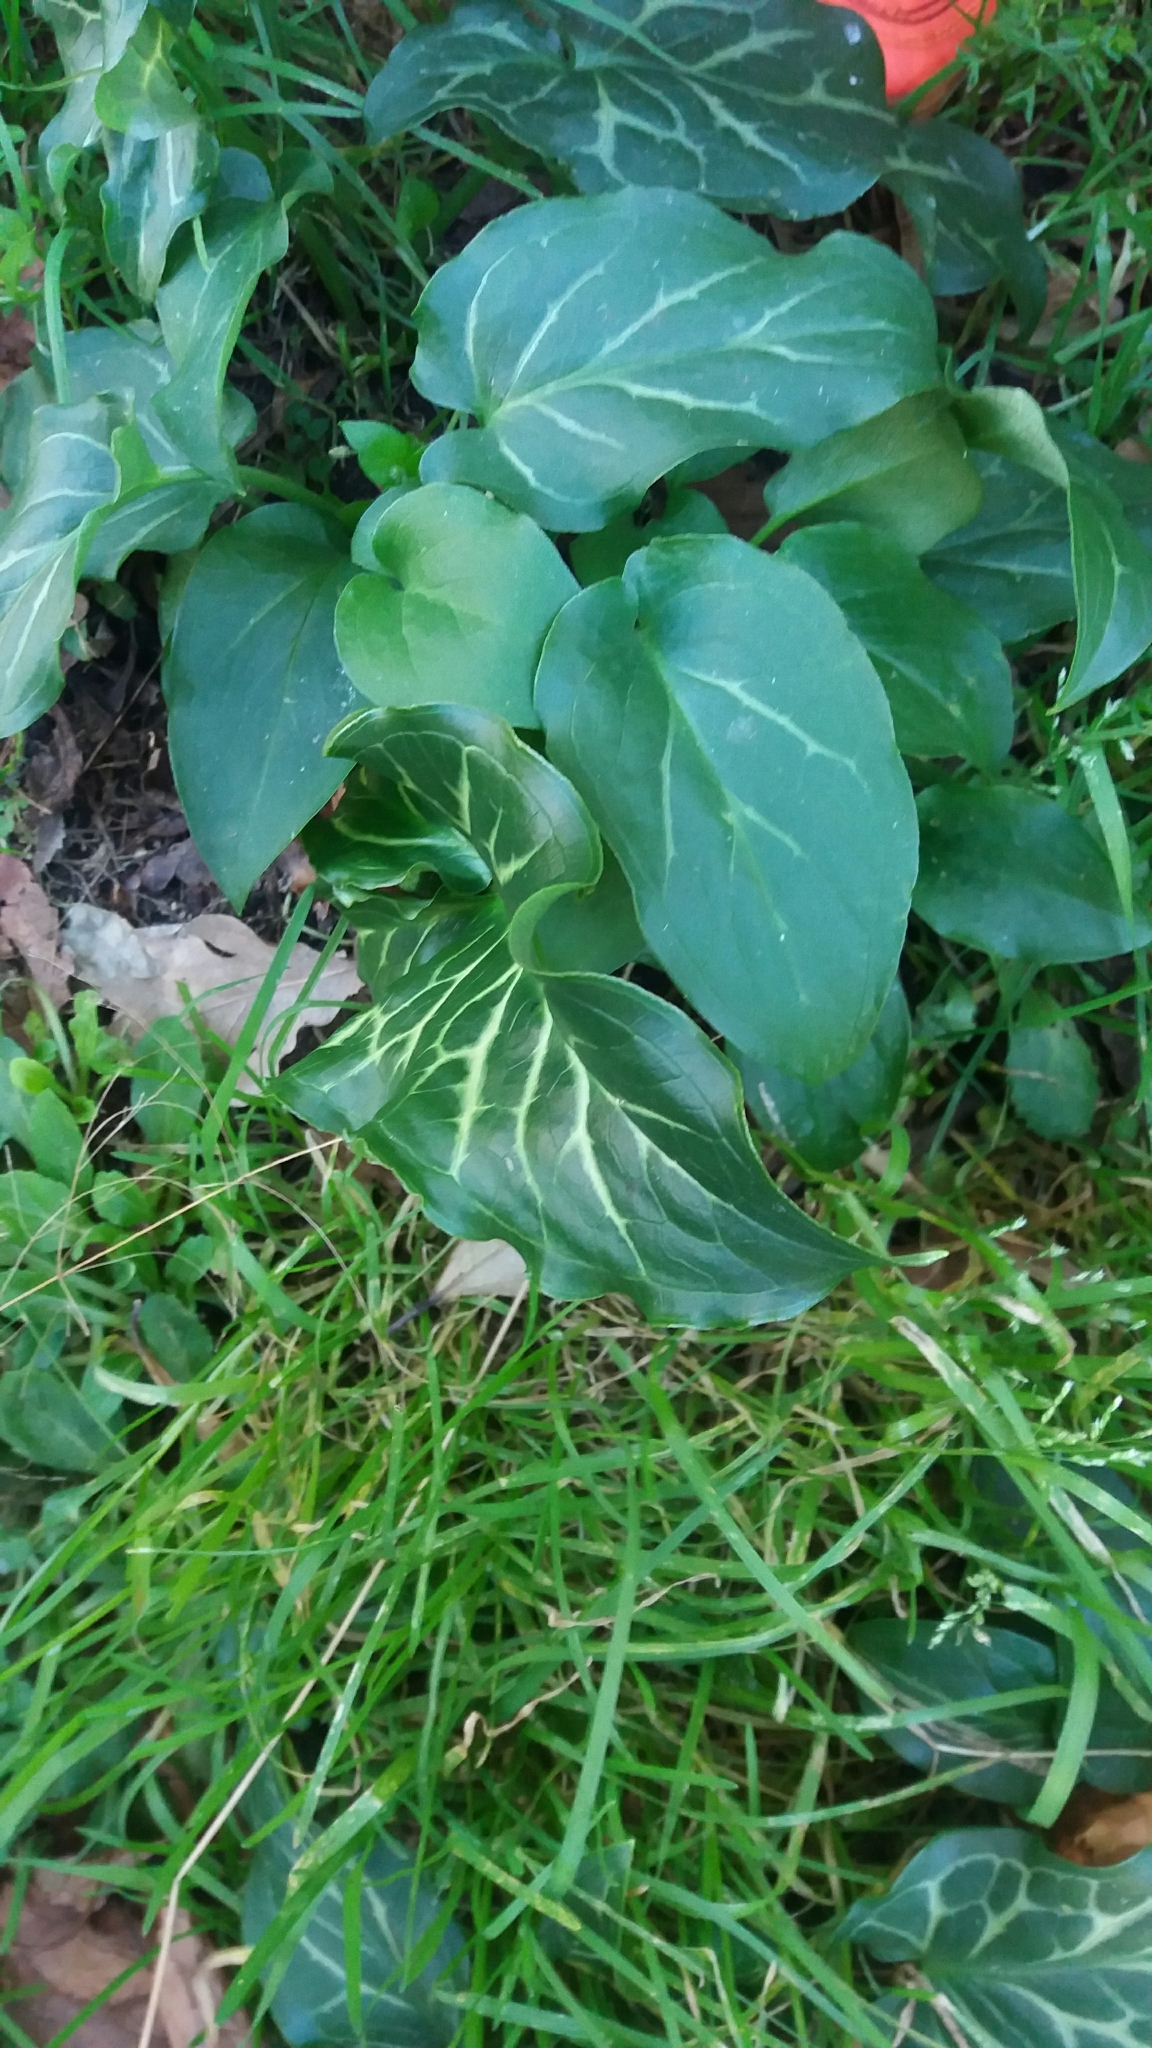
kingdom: Plantae
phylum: Tracheophyta
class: Liliopsida
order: Alismatales
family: Araceae
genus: Arum
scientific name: Arum italicum
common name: Italian lords-and-ladies
